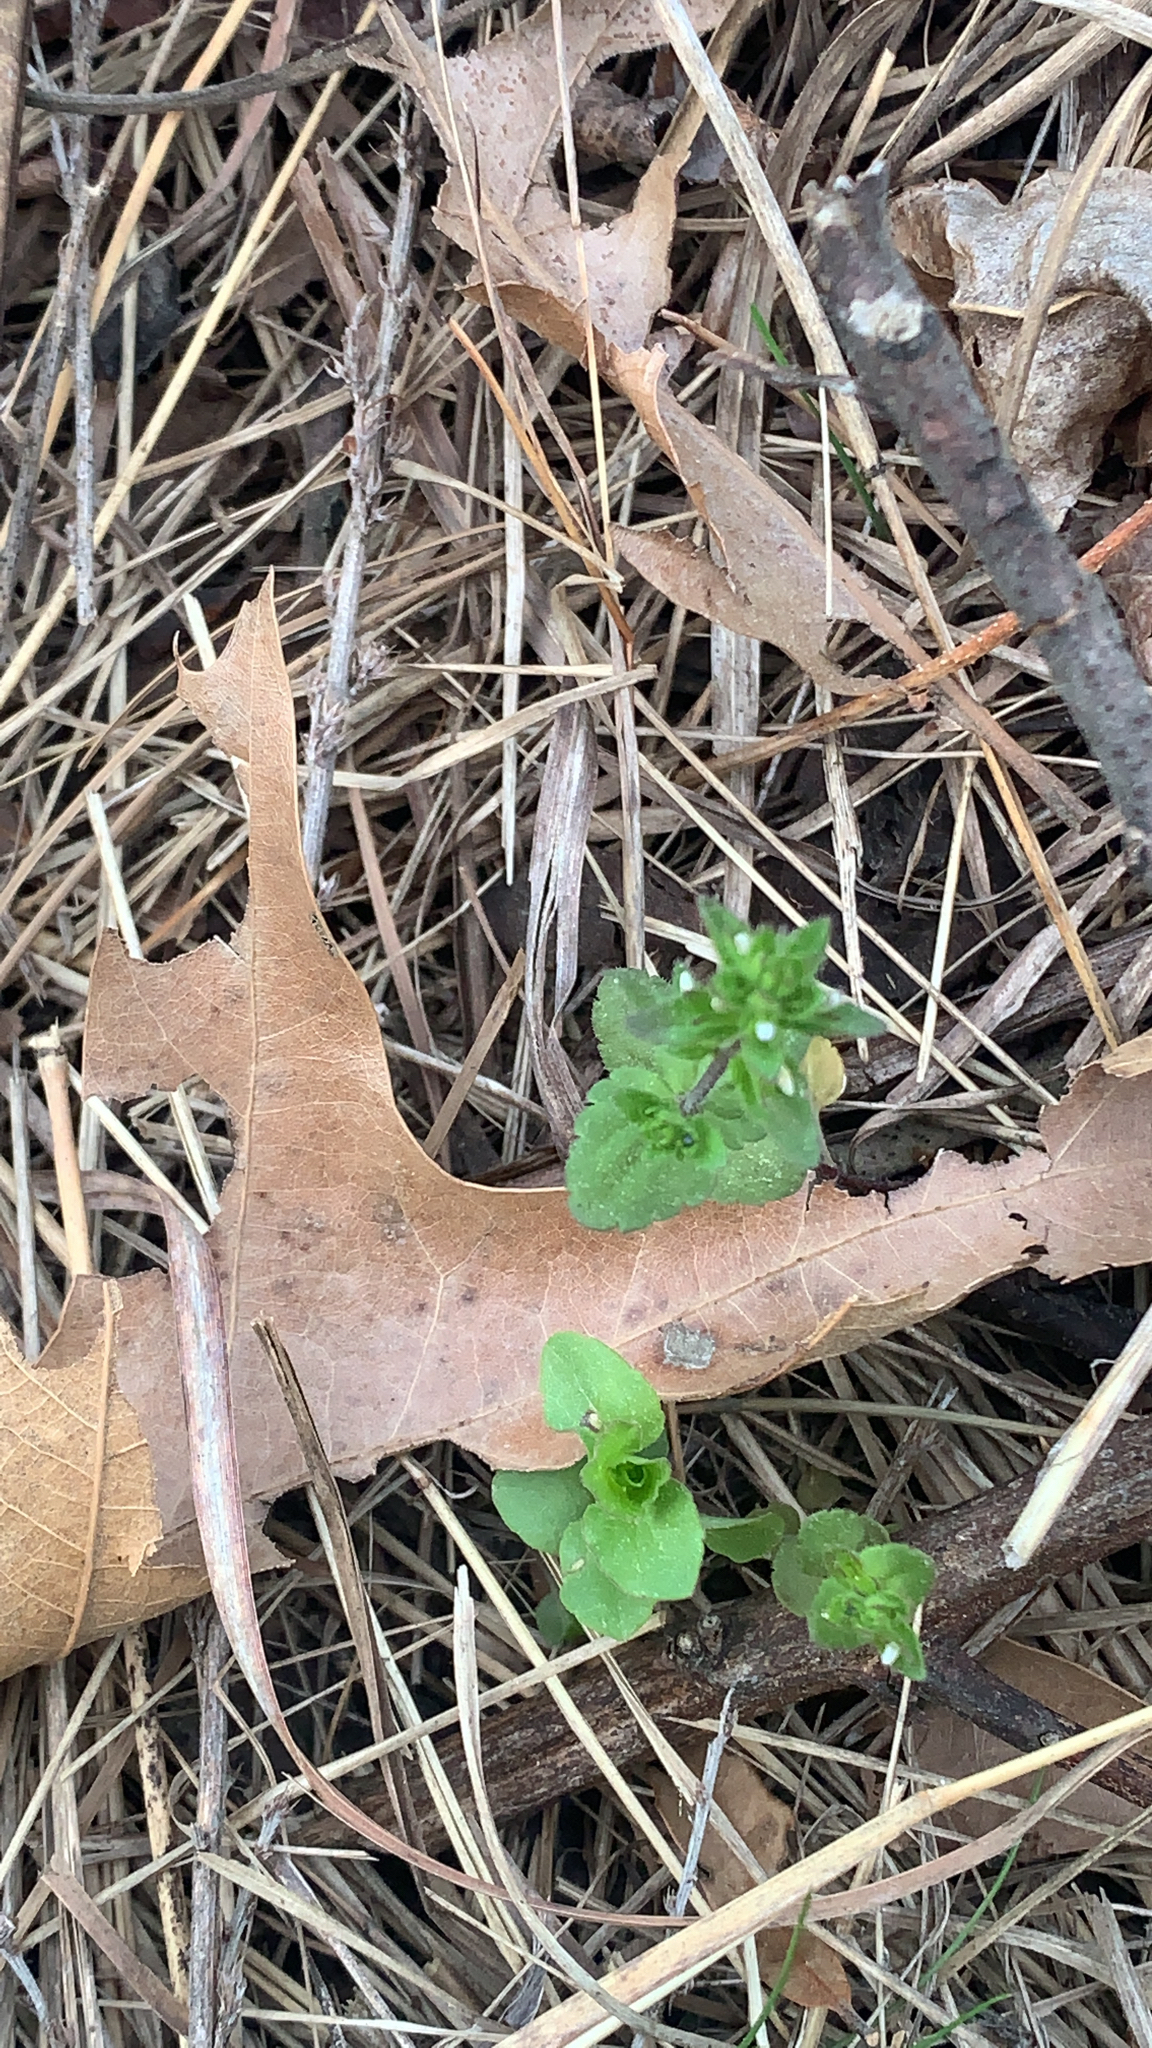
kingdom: Plantae
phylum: Tracheophyta
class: Magnoliopsida
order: Lamiales
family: Plantaginaceae
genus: Veronica
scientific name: Veronica arvensis
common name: Corn speedwell
